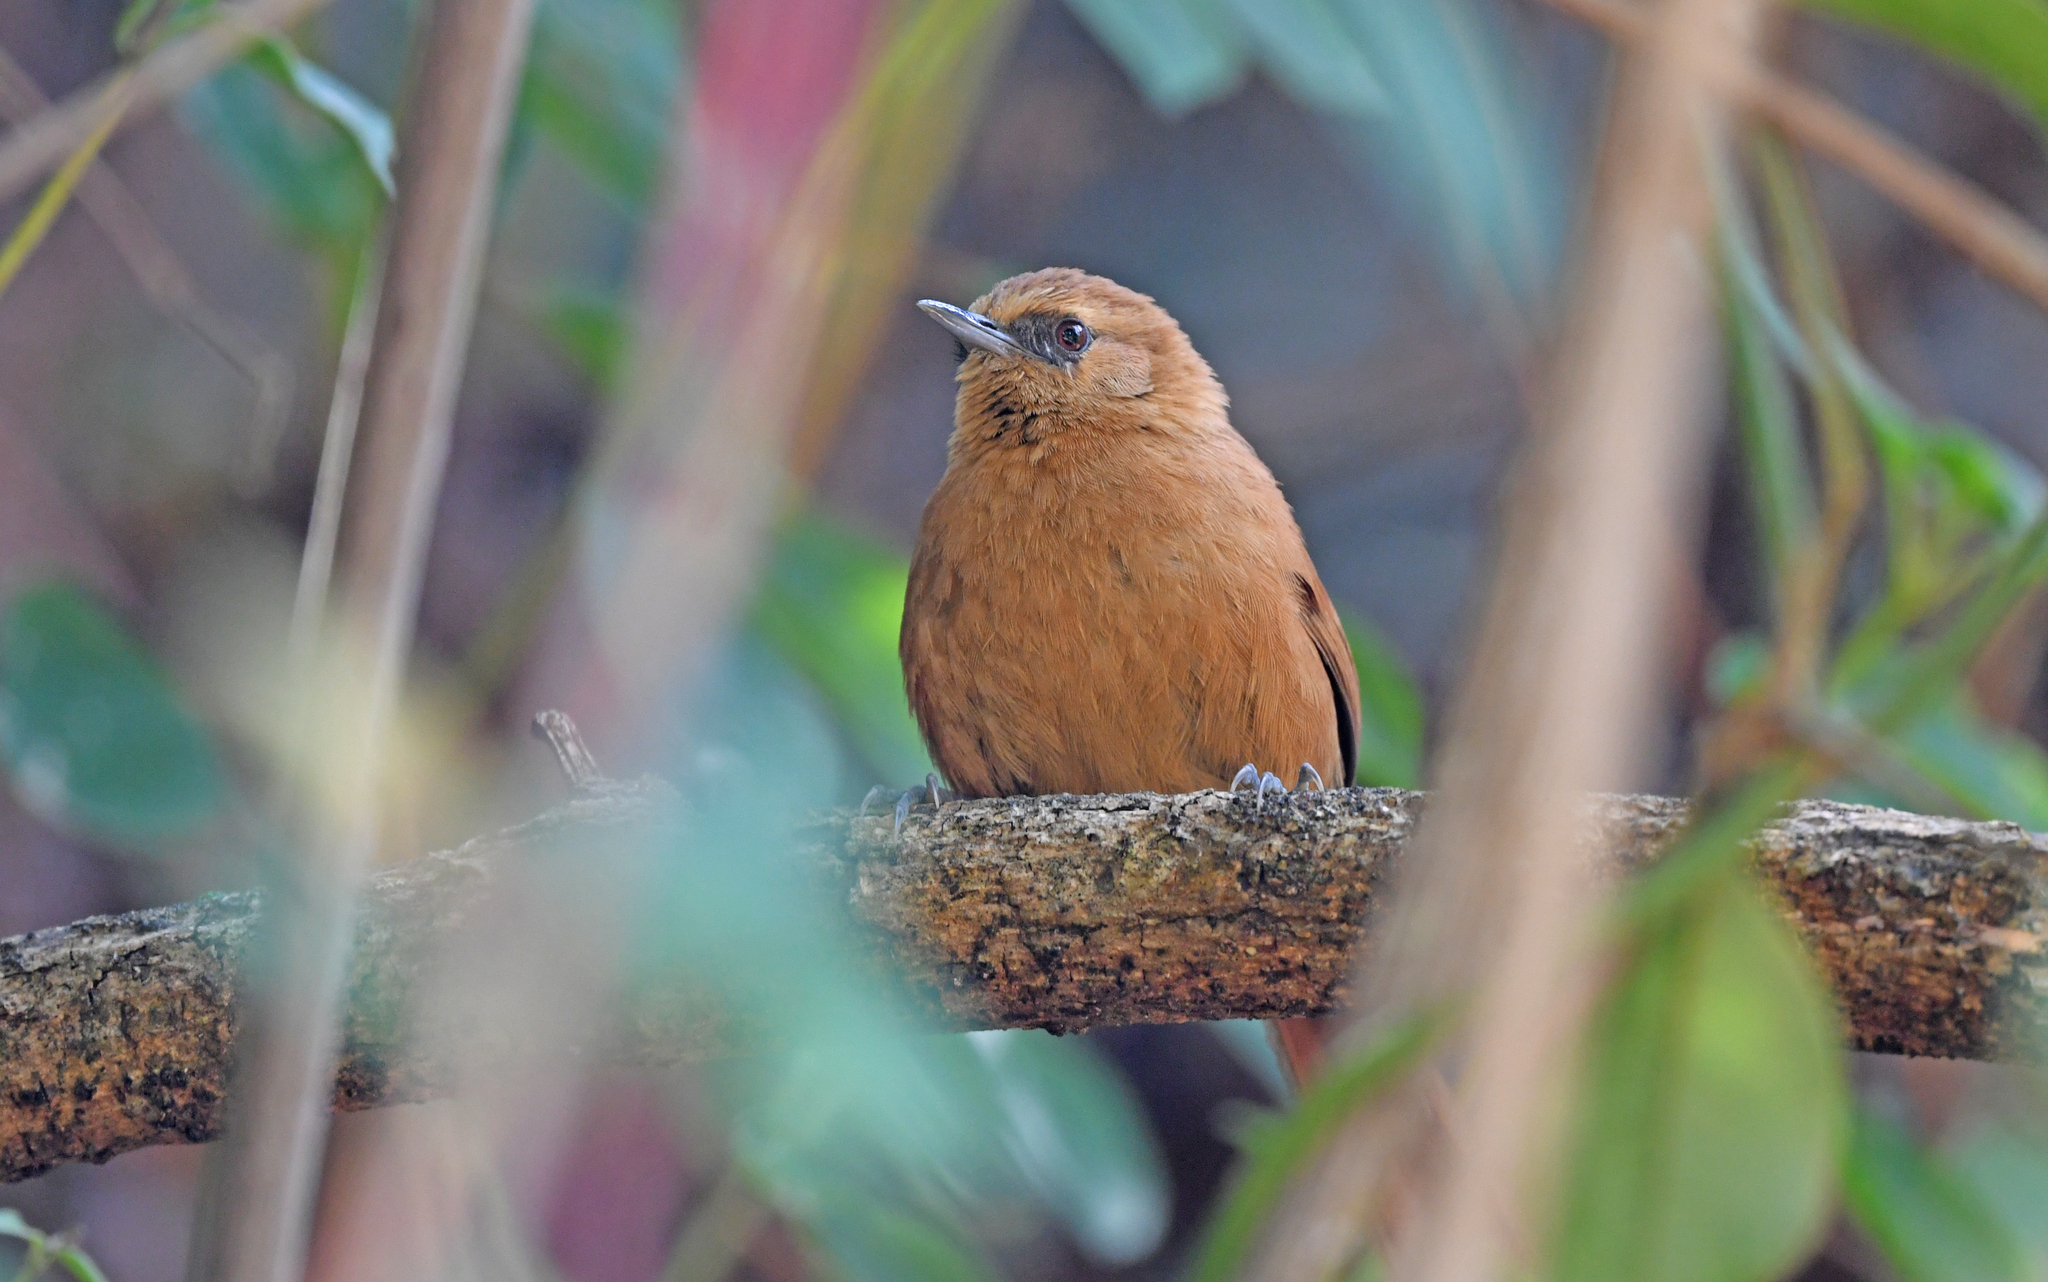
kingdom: Animalia
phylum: Chordata
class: Aves
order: Passeriformes
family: Furnariidae
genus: Synallaxis
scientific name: Synallaxis unirufa
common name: Rufous spinetail
